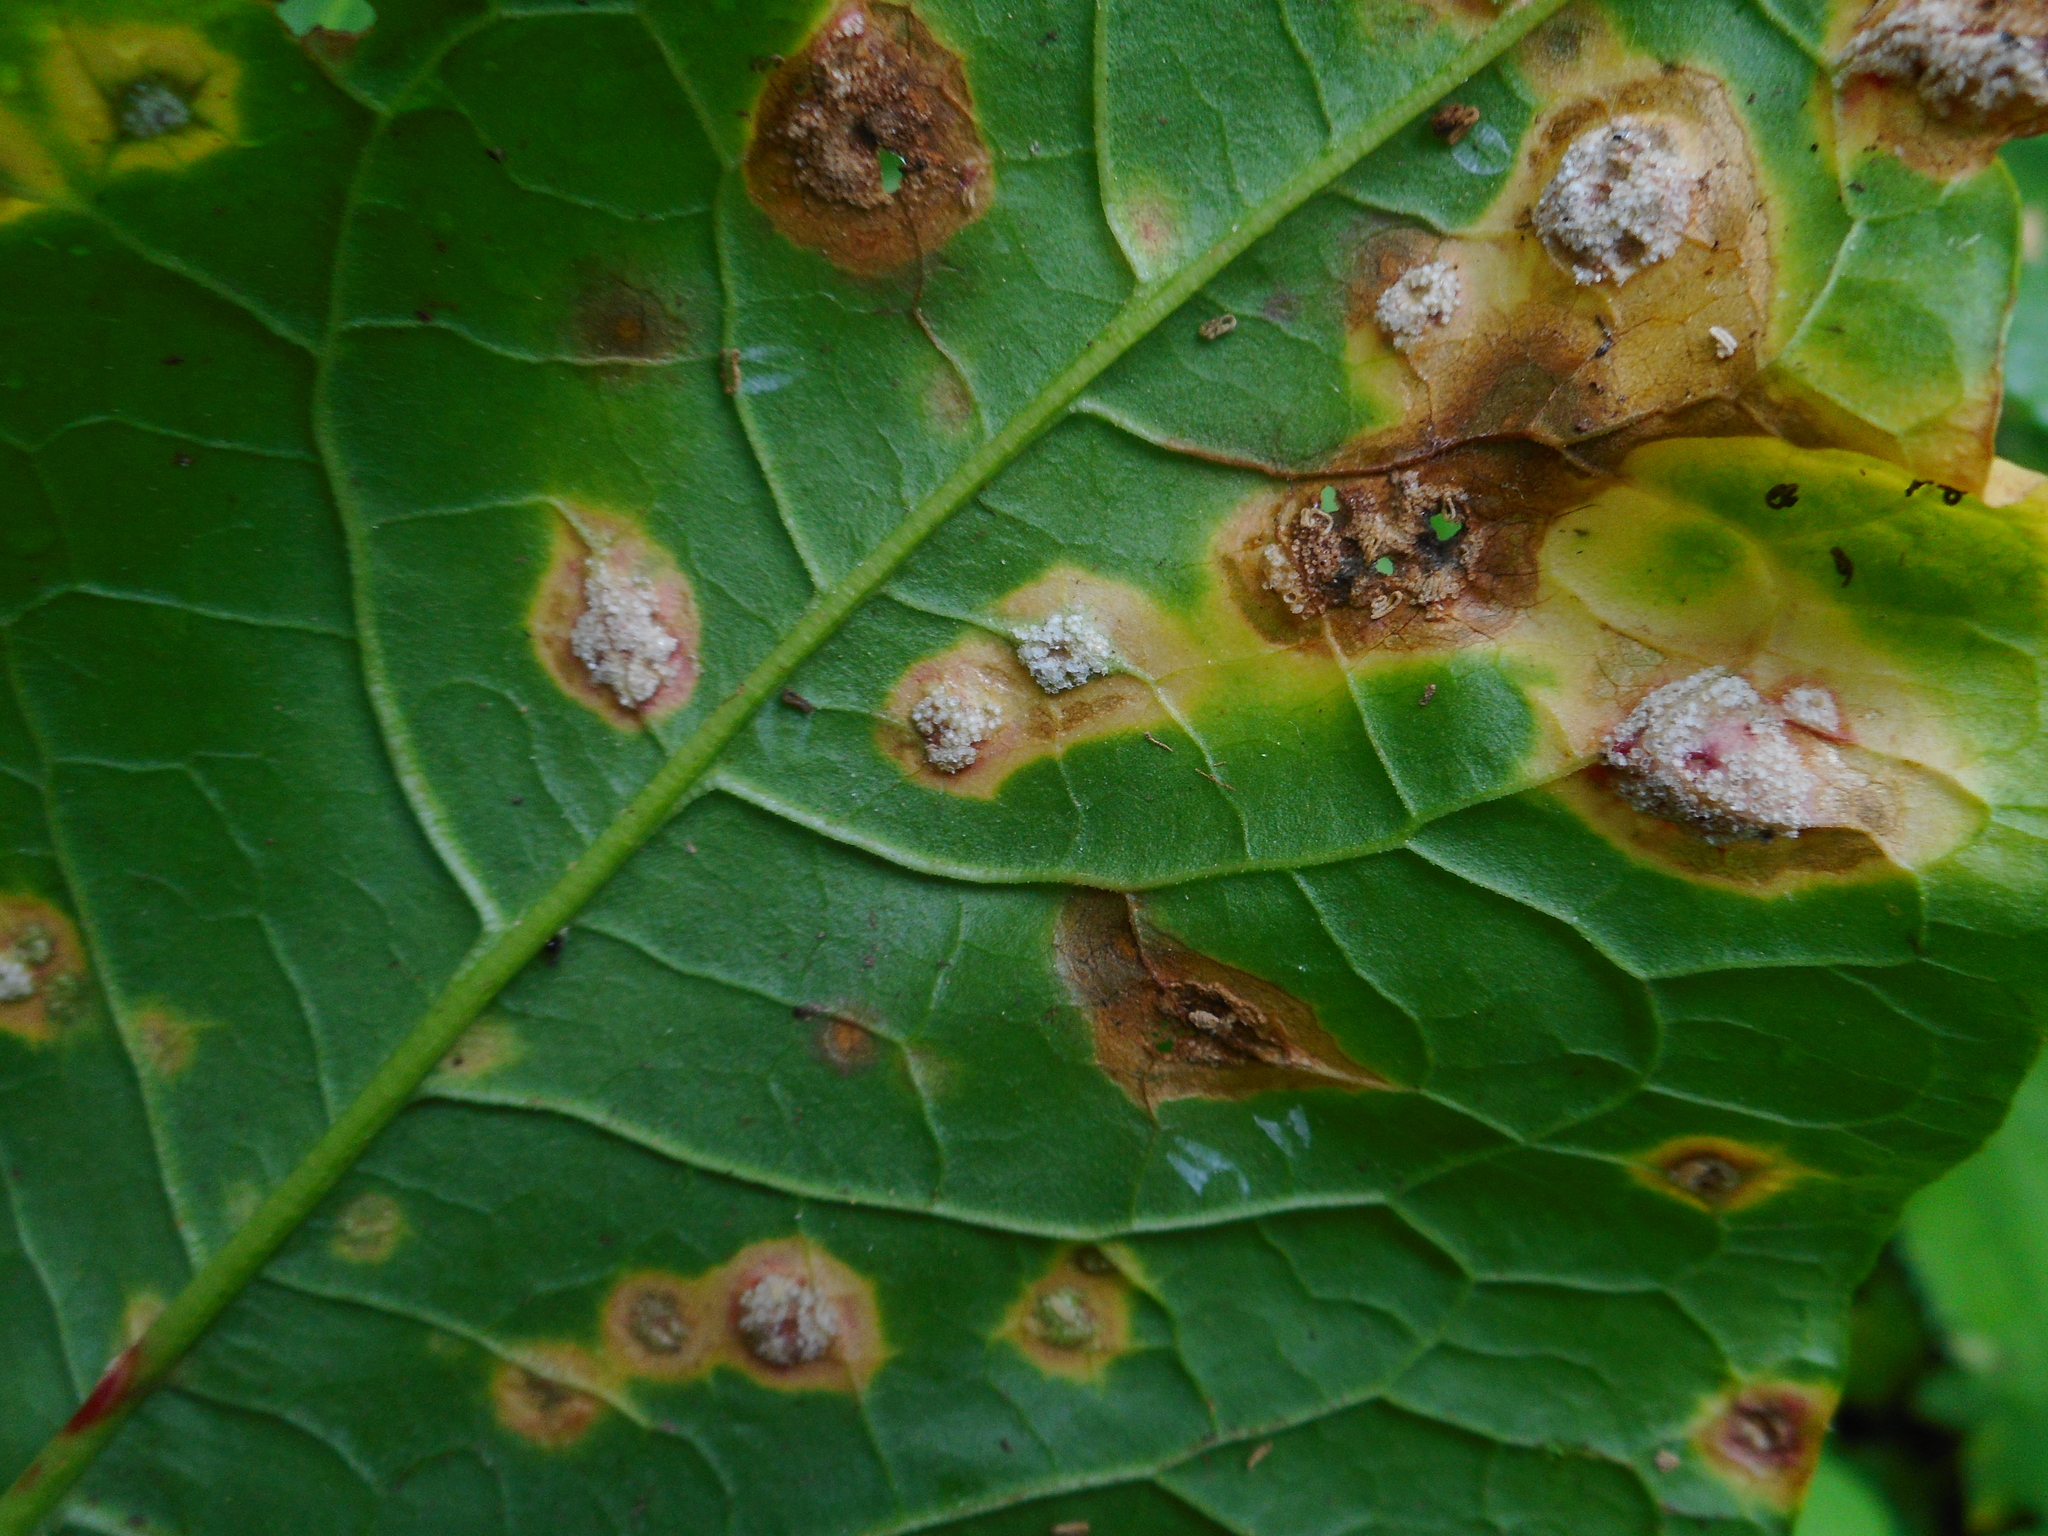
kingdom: Fungi
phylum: Basidiomycota
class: Pucciniomycetes
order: Pucciniales
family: Pucciniaceae
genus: Puccinia
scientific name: Puccinia phragmitis
